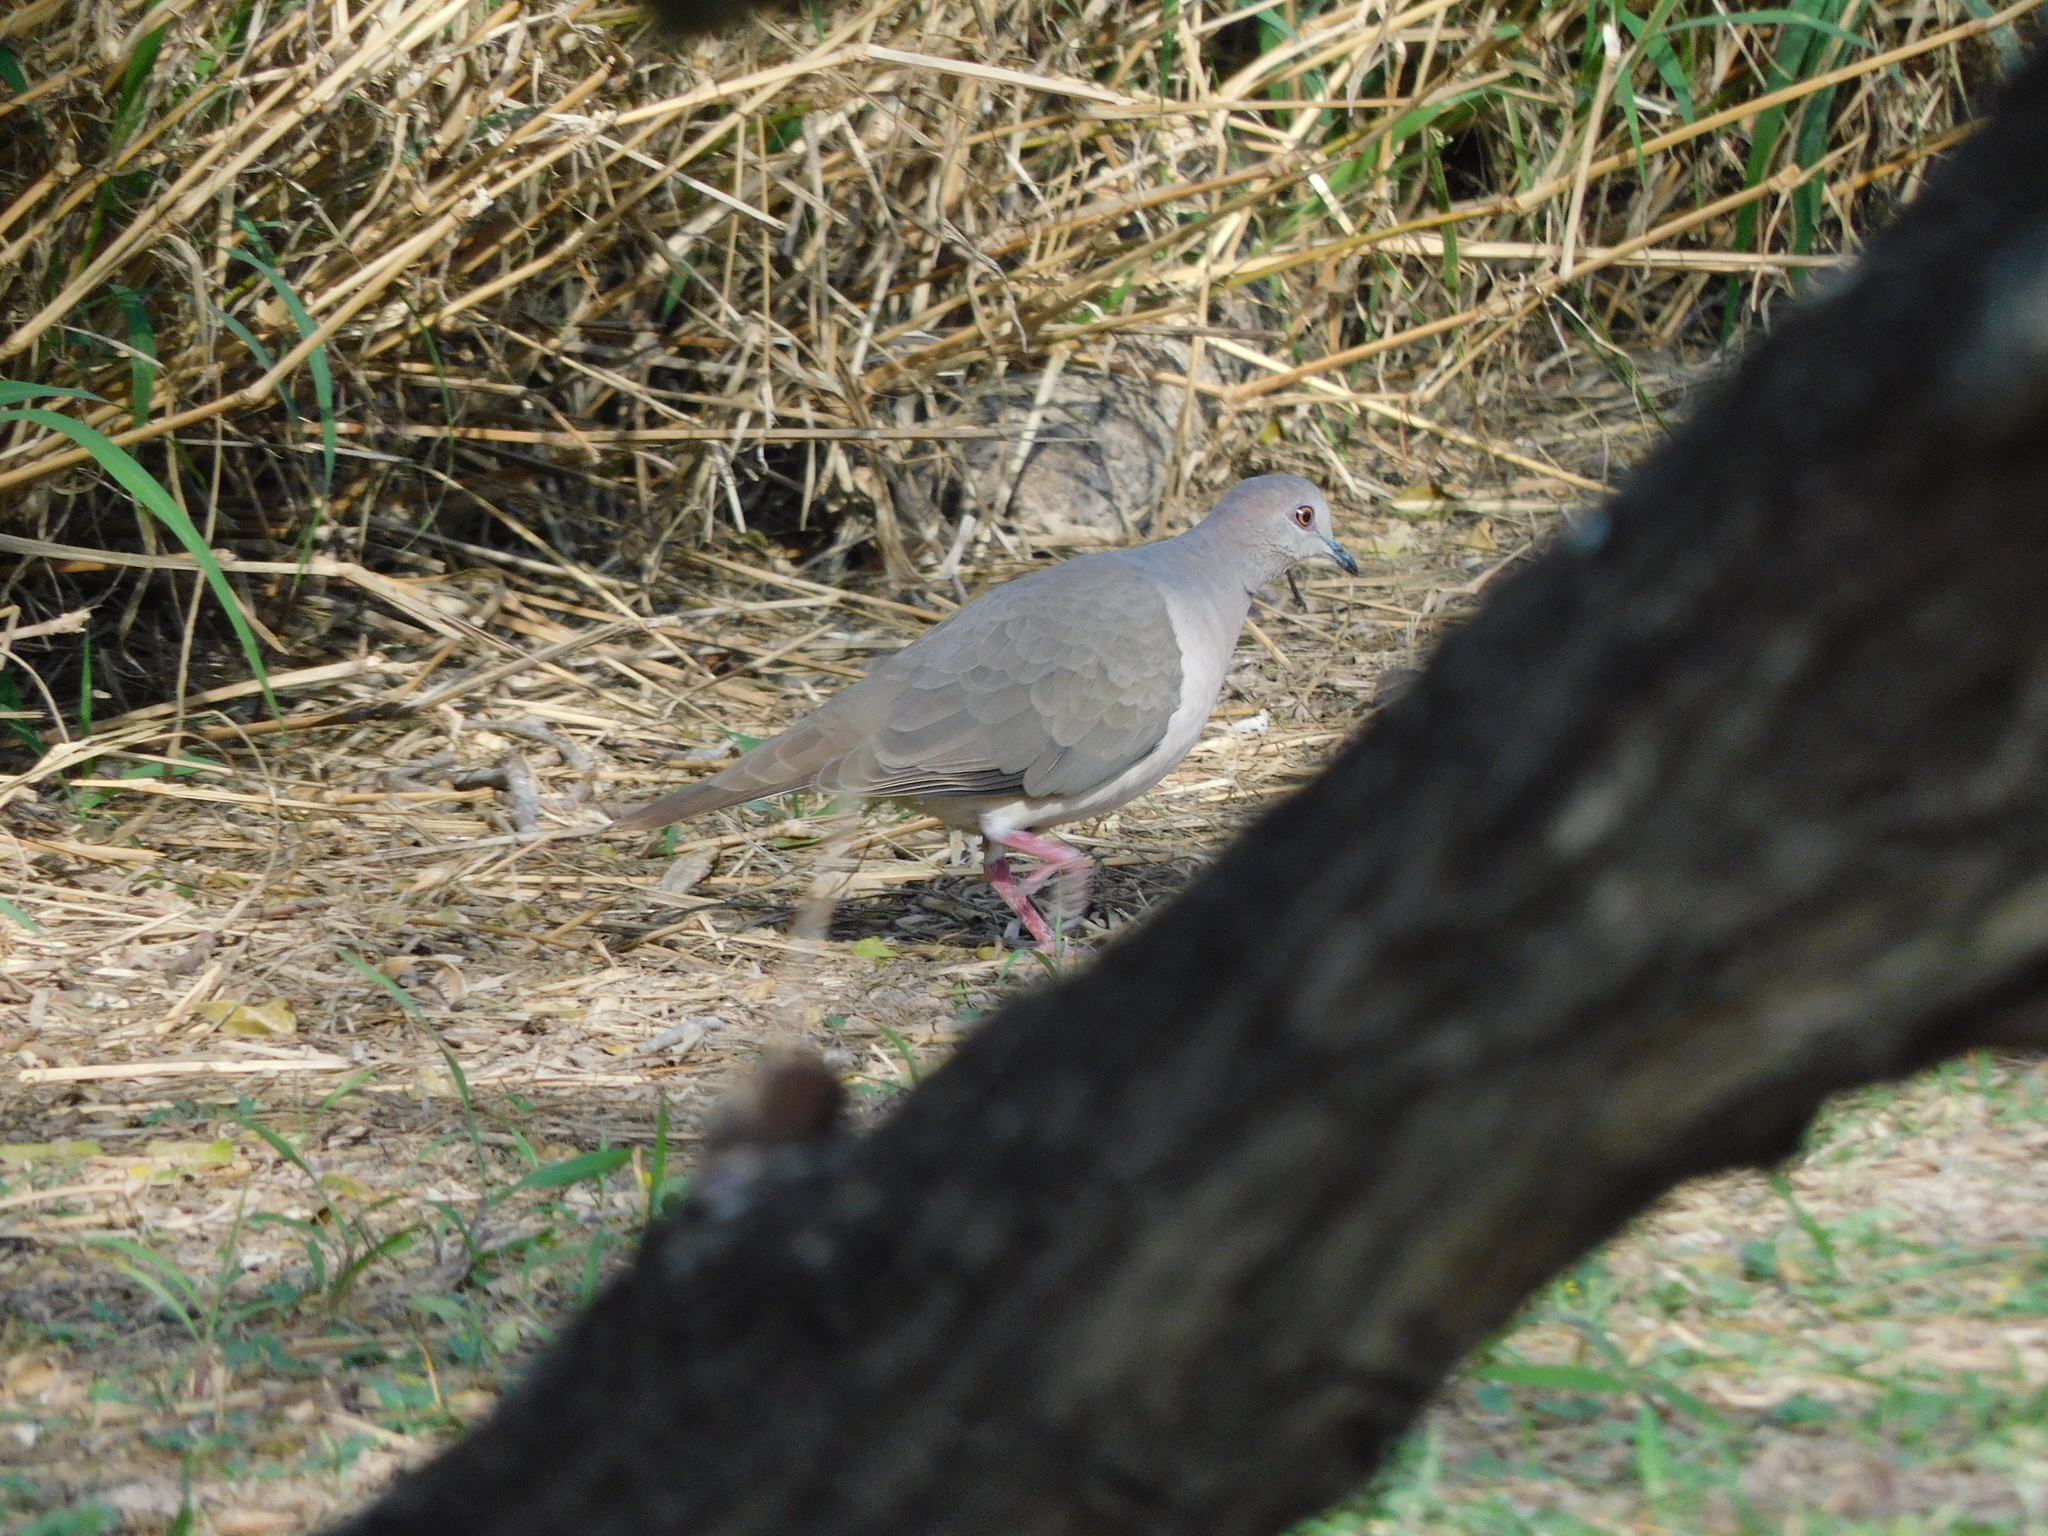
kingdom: Animalia
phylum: Chordata
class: Aves
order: Columbiformes
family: Columbidae
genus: Leptotila
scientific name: Leptotila verreauxi
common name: White-tipped dove
